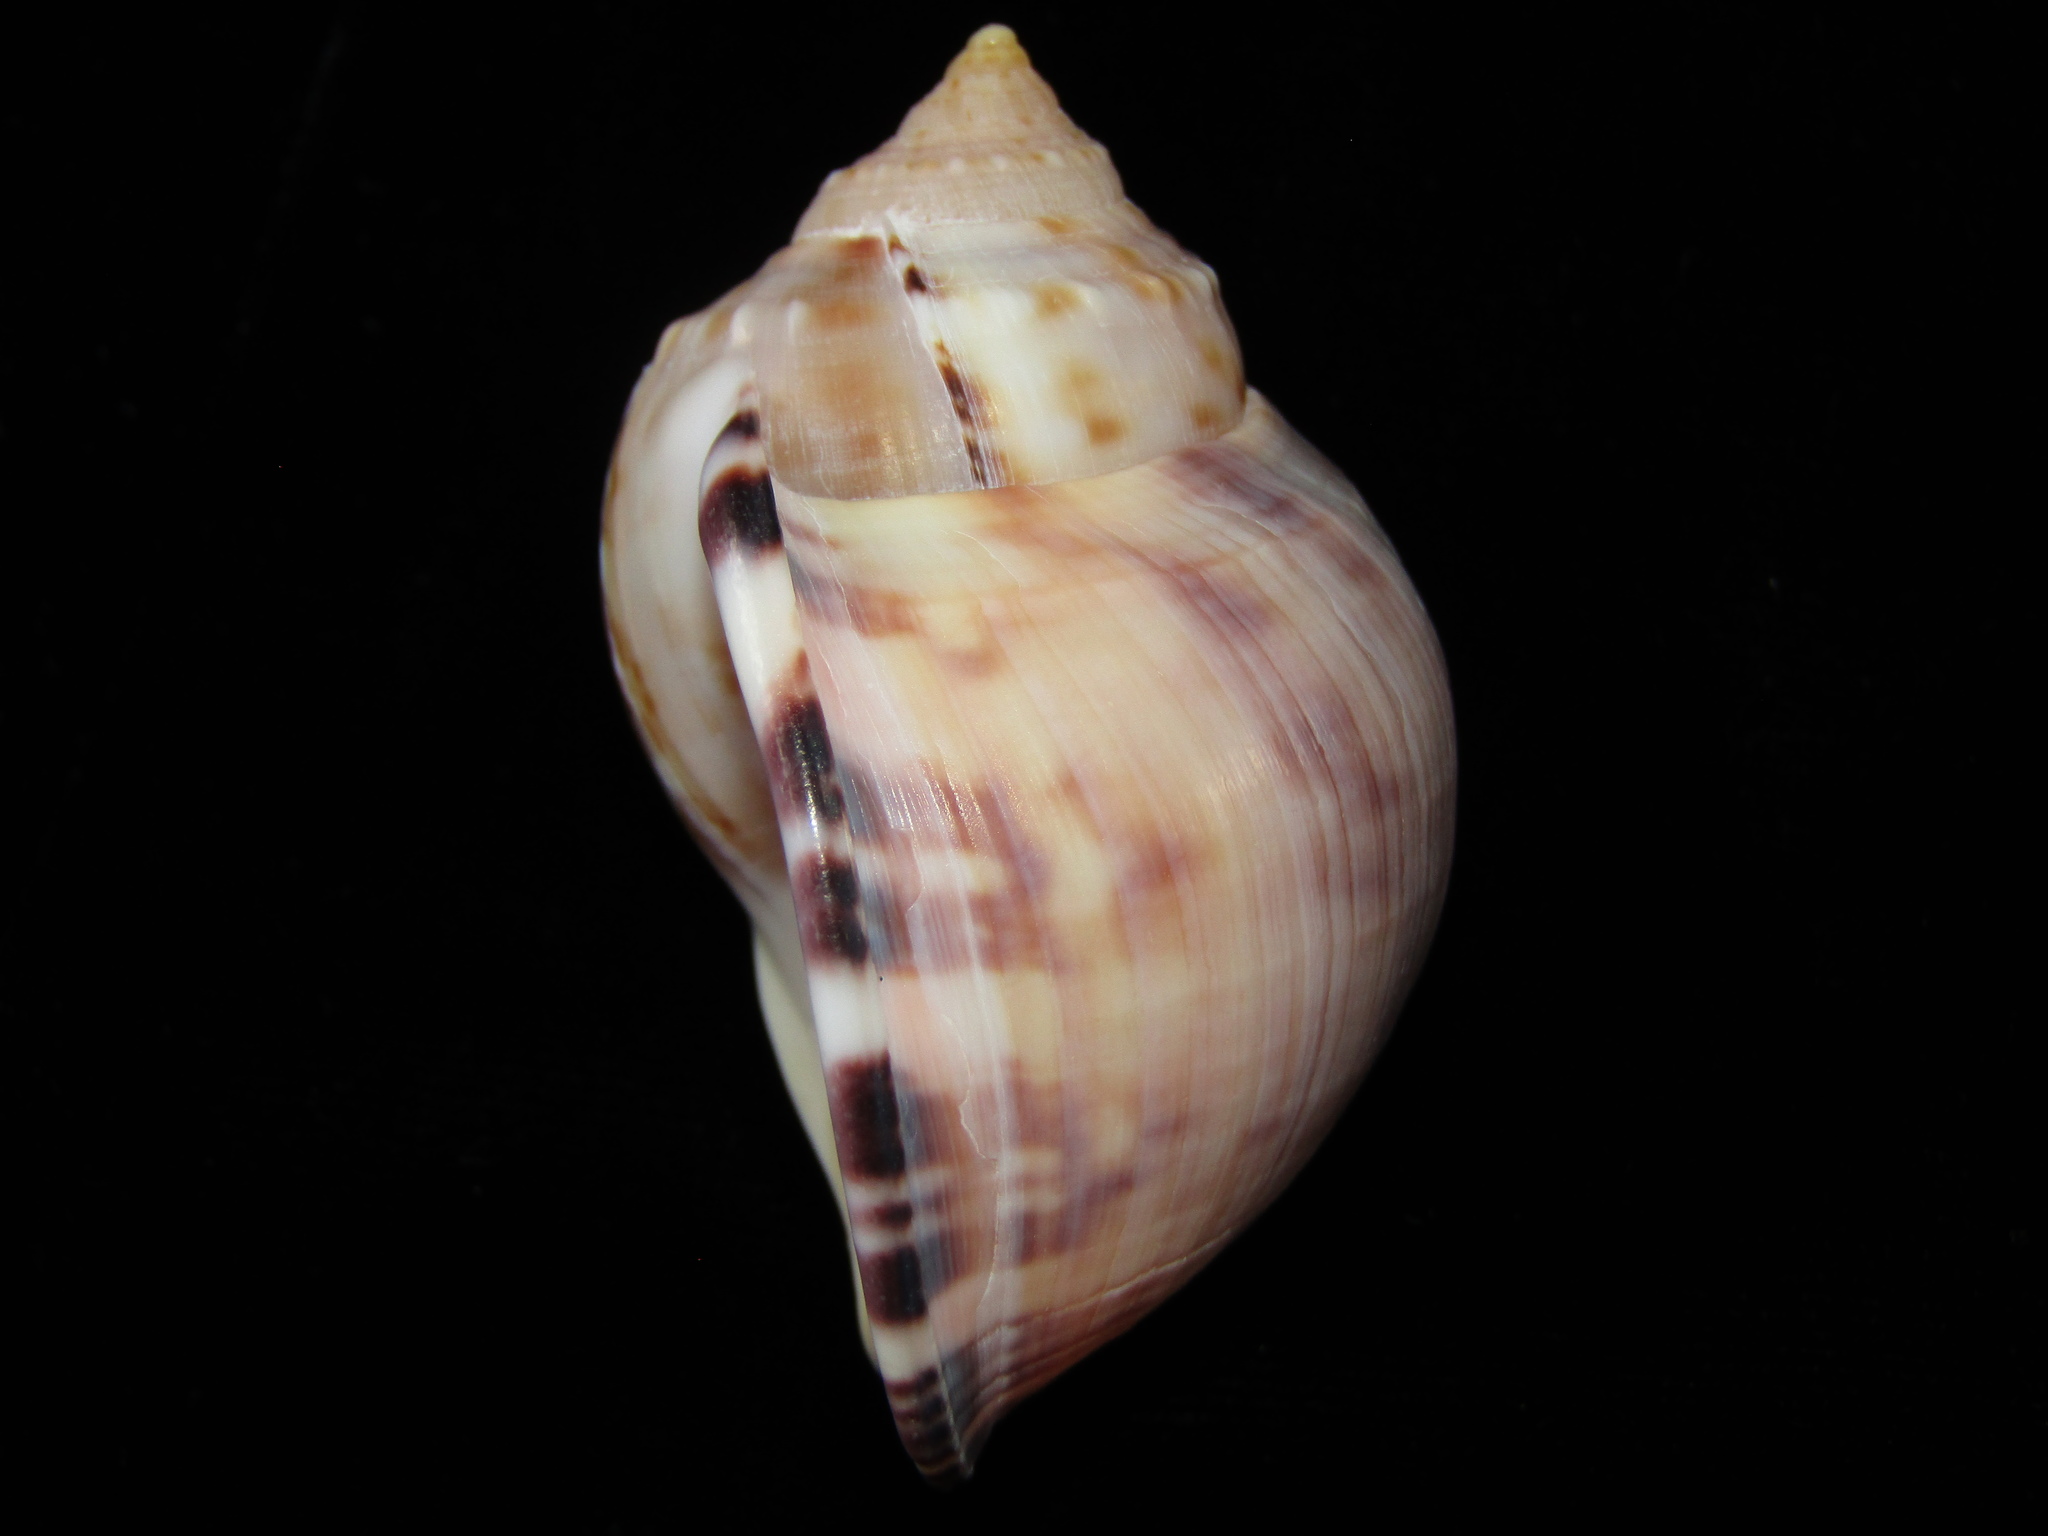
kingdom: Animalia
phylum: Mollusca
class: Gastropoda
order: Littorinimorpha
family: Cassidae
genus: Semicassis
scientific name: Semicassis pyrum
